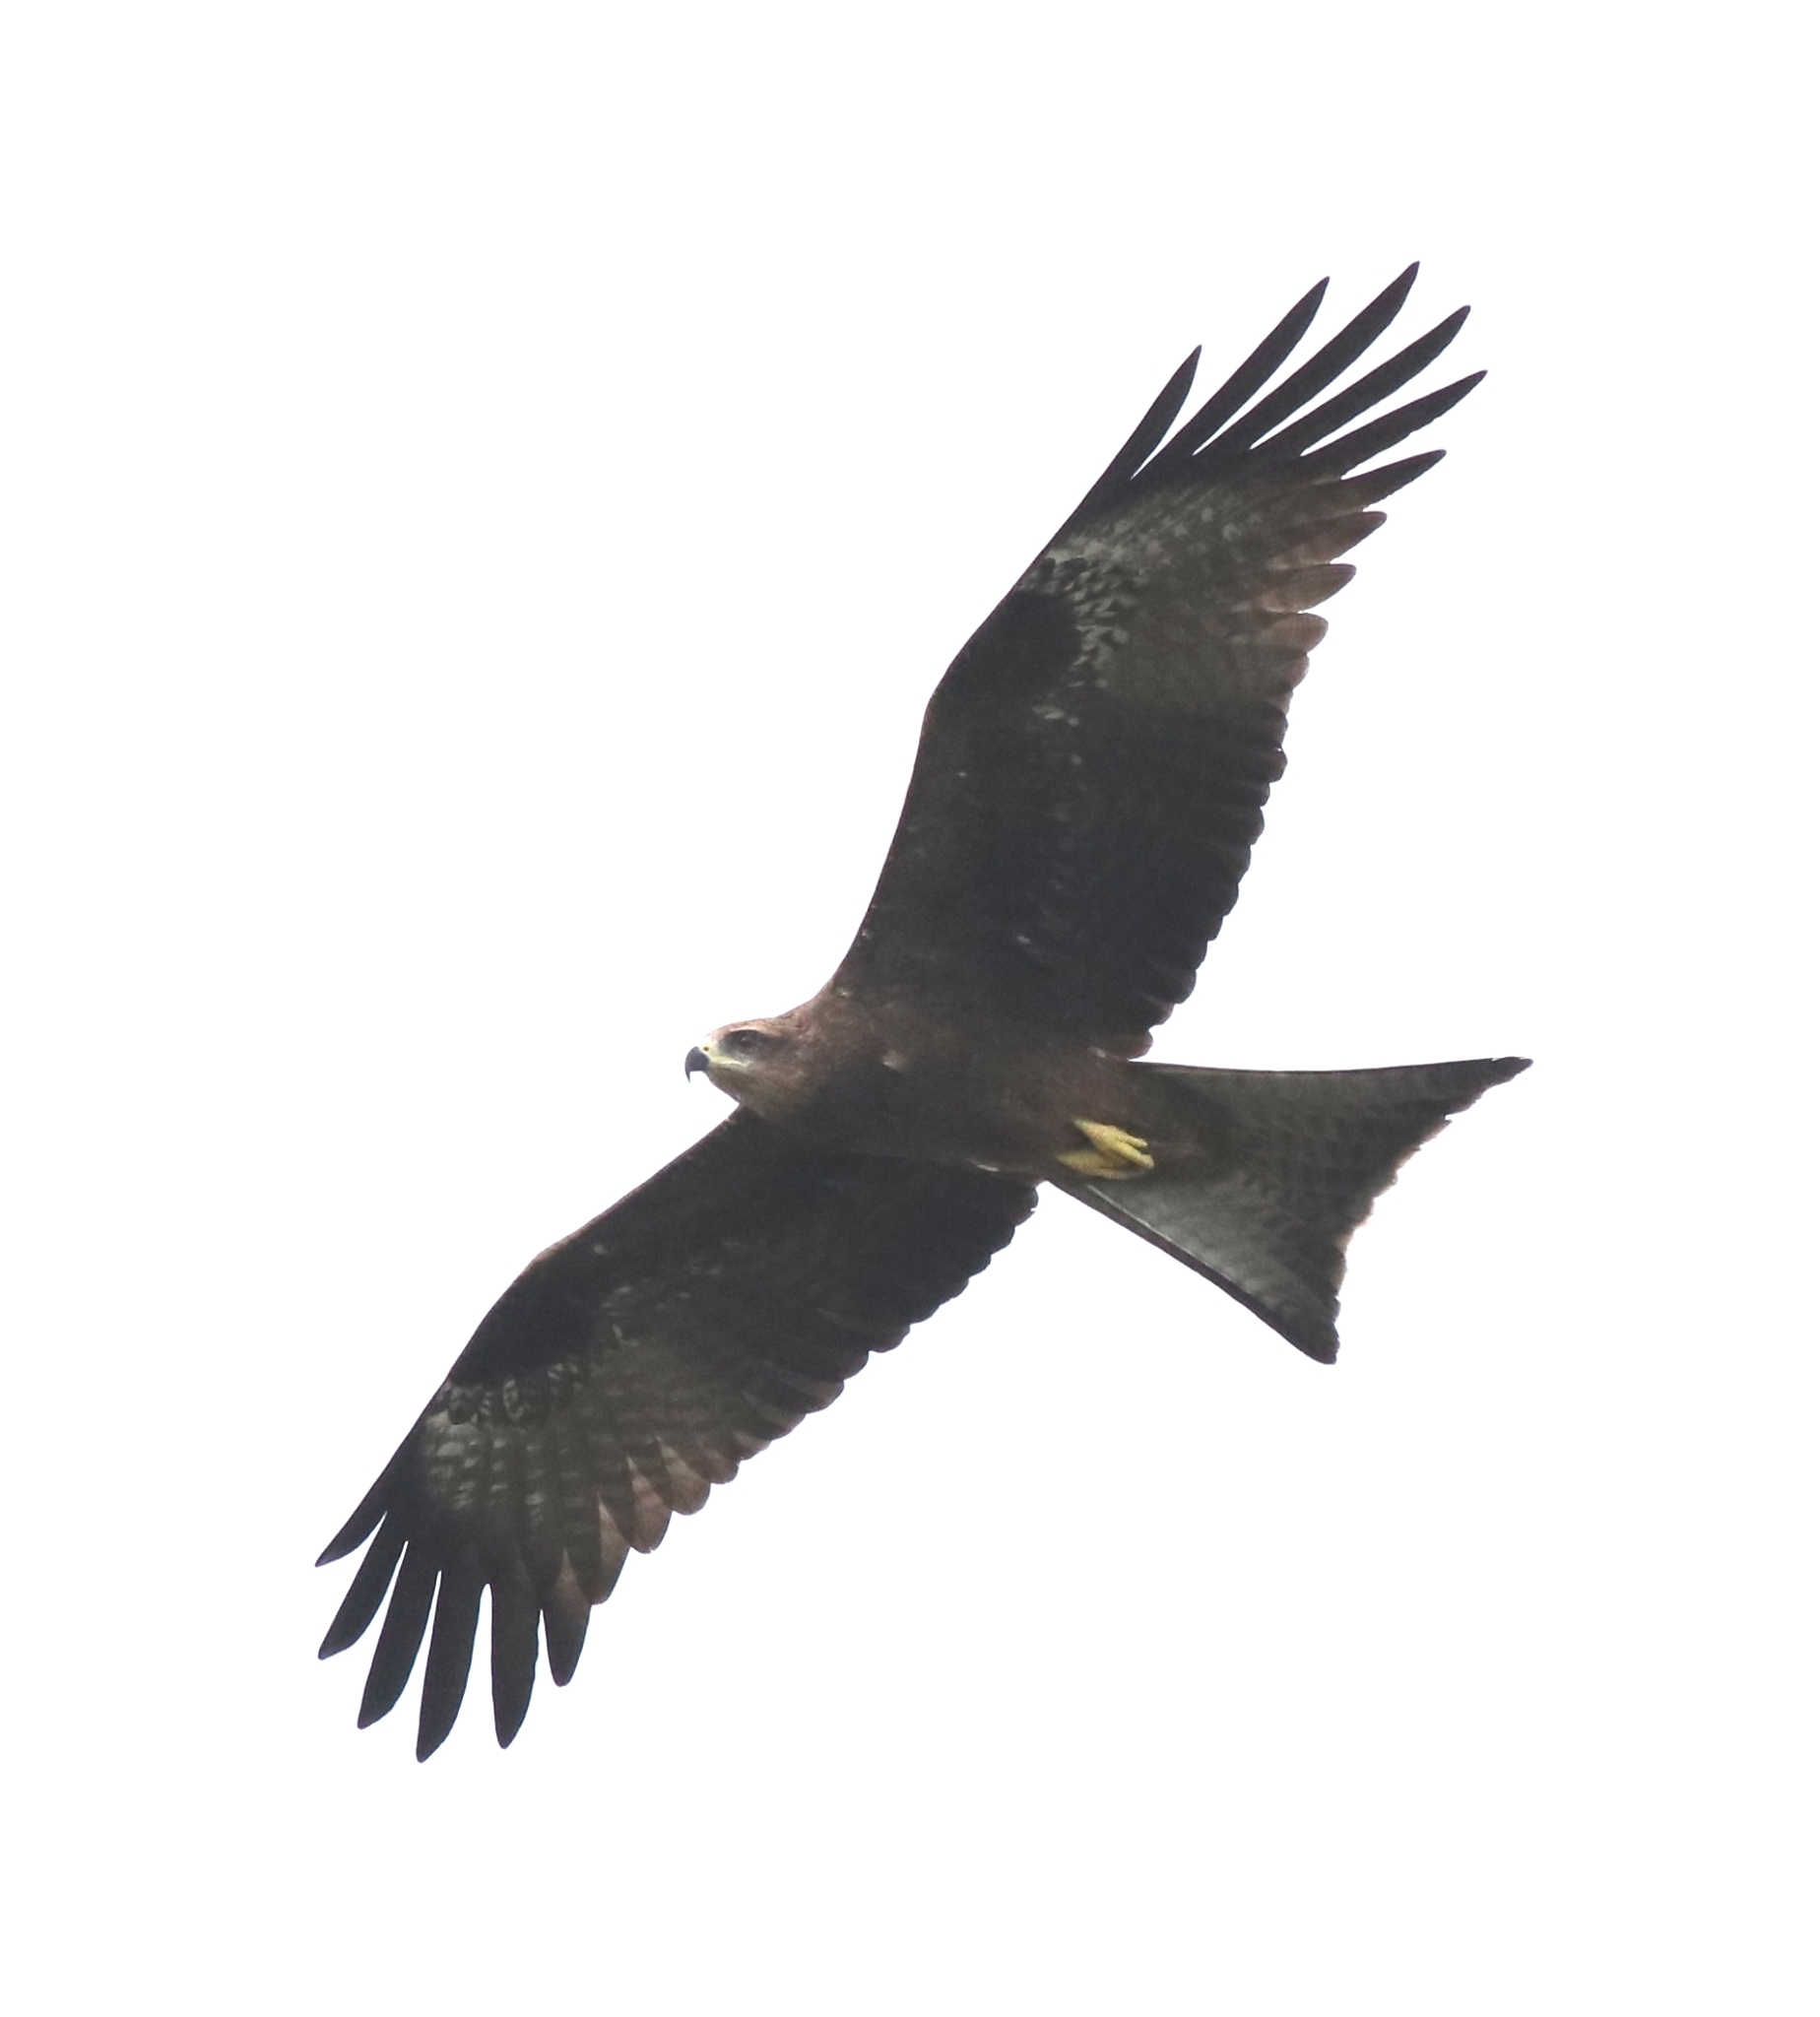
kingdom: Animalia
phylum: Chordata
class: Aves
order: Accipitriformes
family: Accipitridae
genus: Milvus
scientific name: Milvus migrans
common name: Black kite
